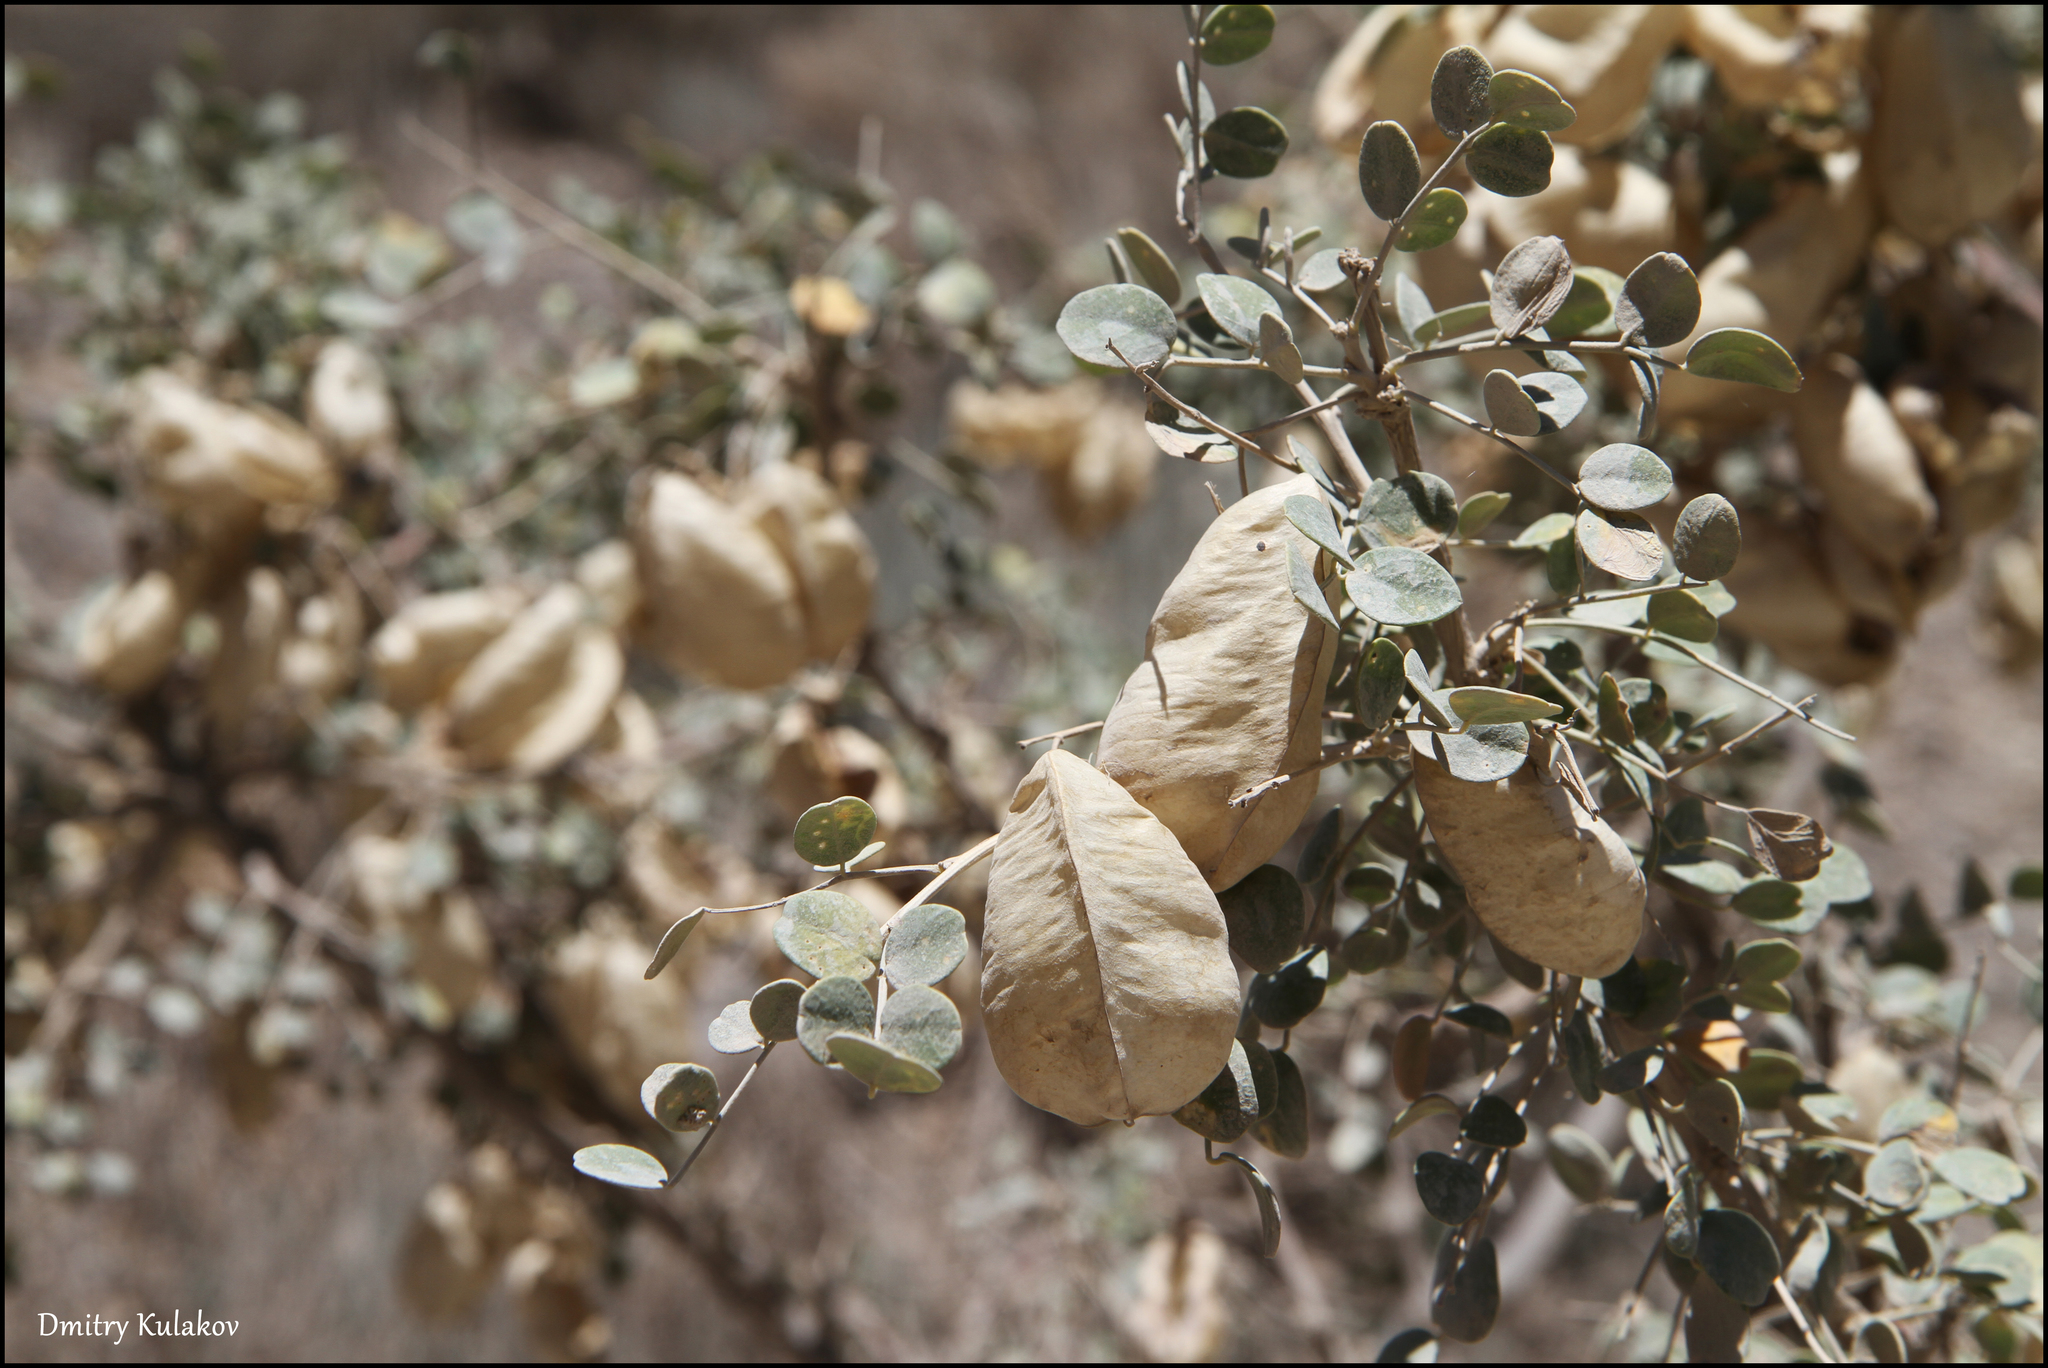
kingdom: Plantae
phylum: Tracheophyta
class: Magnoliopsida
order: Fabales
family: Fabaceae
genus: Colutea
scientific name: Colutea paulsenii
